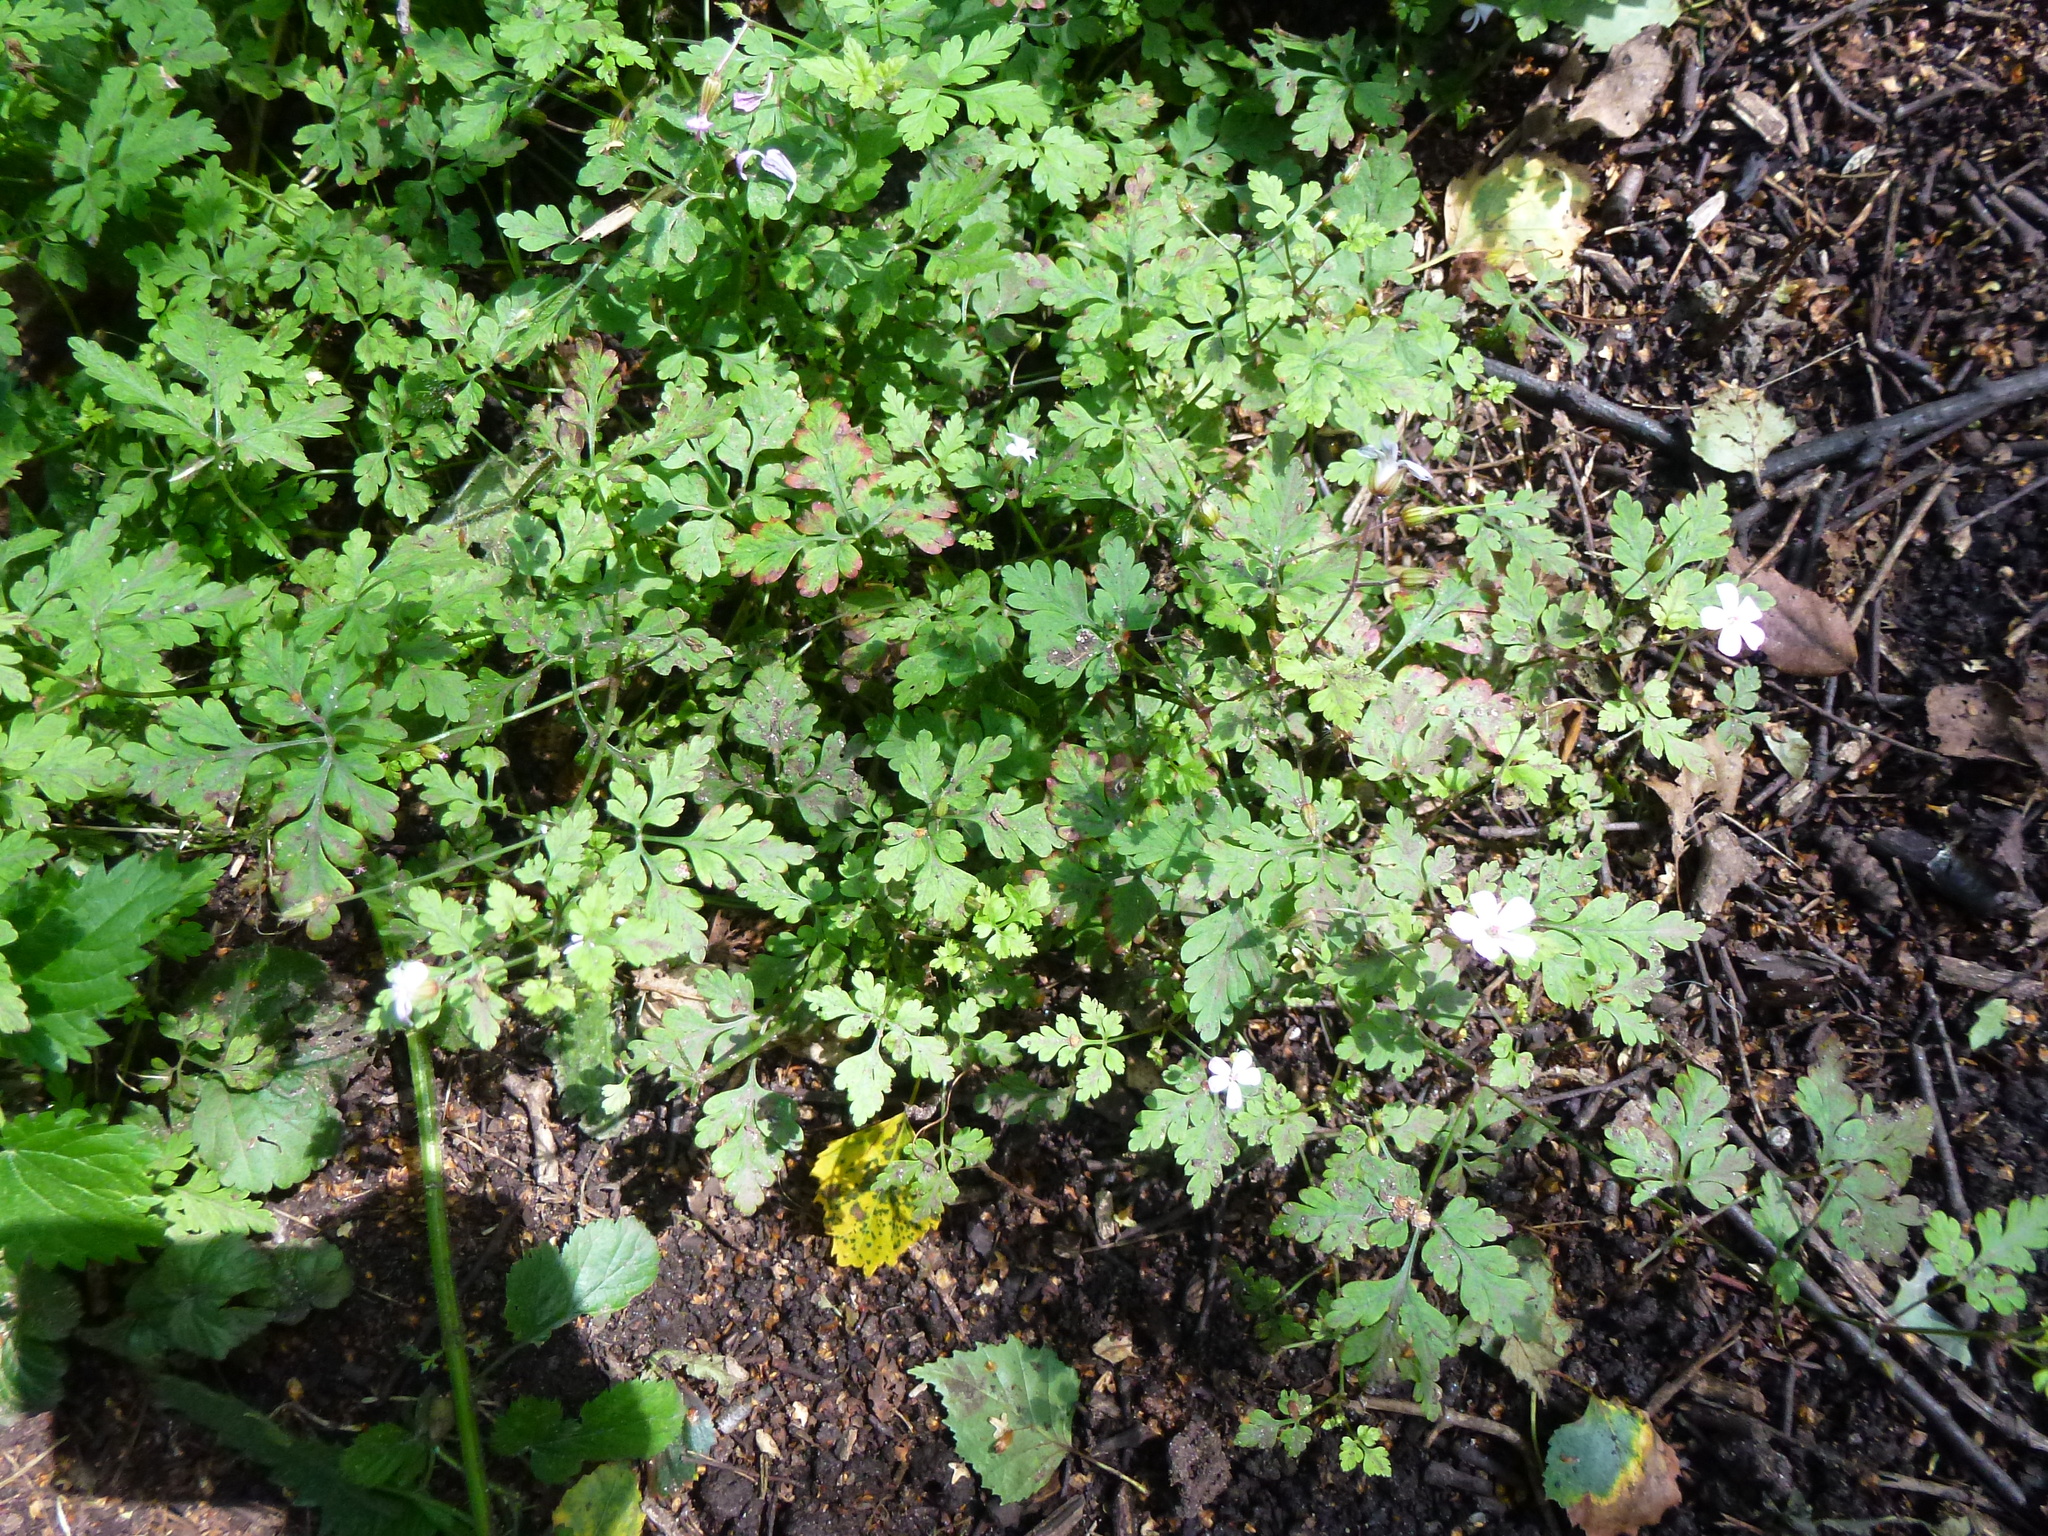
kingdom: Plantae
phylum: Tracheophyta
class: Magnoliopsida
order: Geraniales
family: Geraniaceae
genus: Geranium
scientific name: Geranium robertianum
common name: Herb-robert
